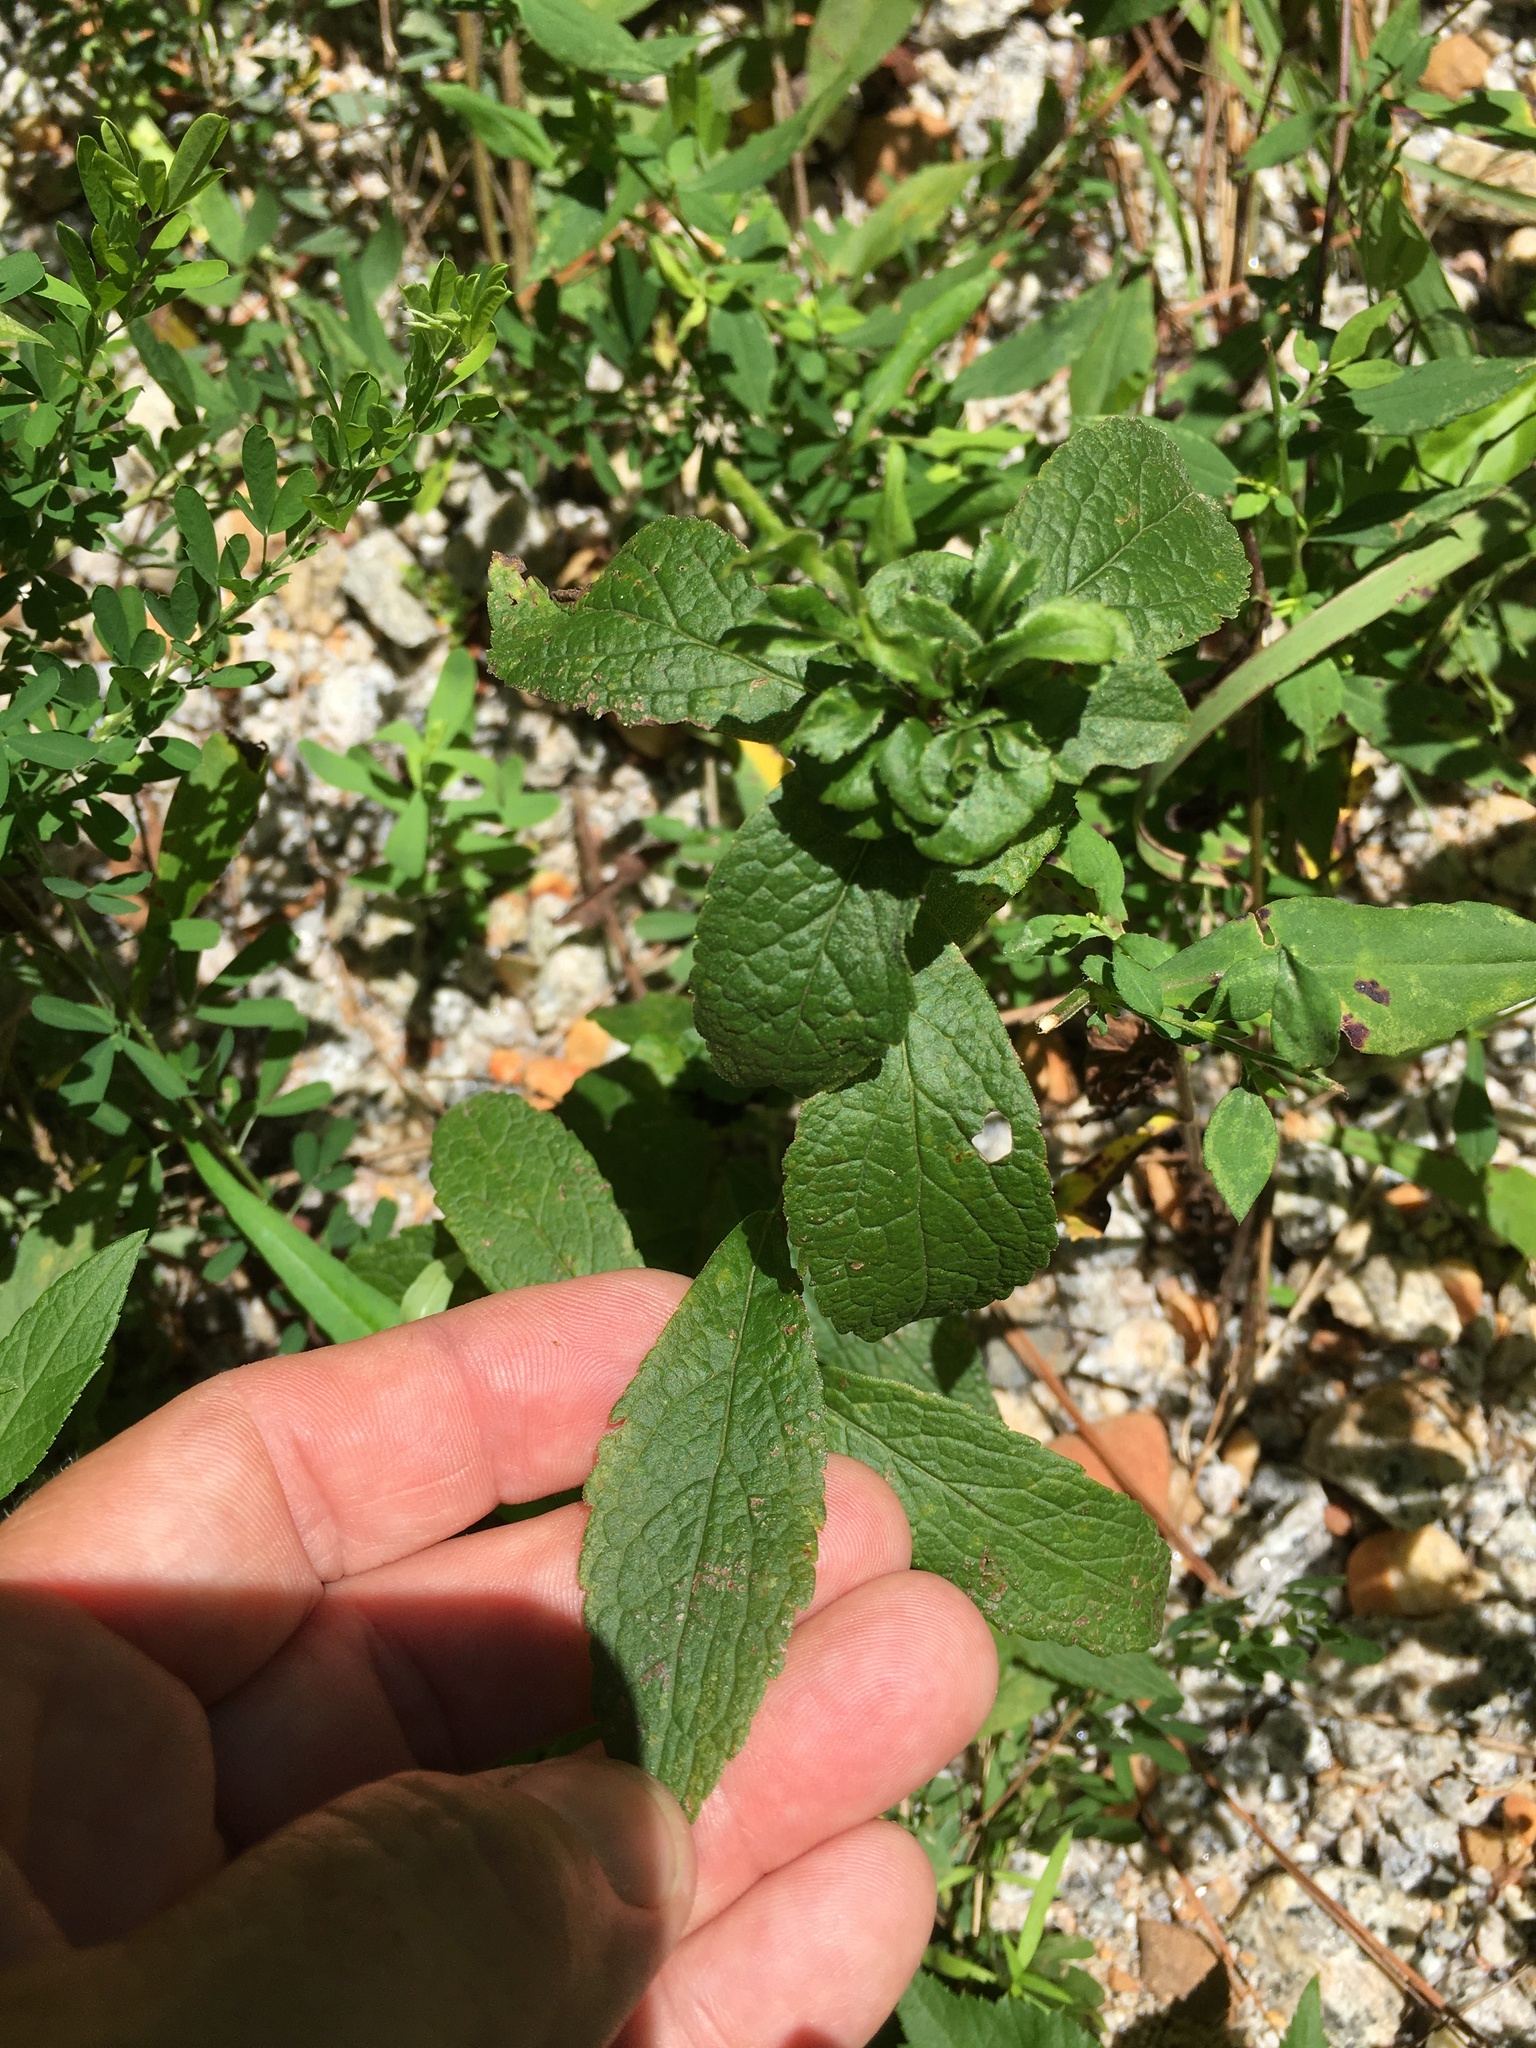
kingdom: Plantae
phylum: Tracheophyta
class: Magnoliopsida
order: Asterales
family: Asteraceae
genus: Solidago
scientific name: Solidago rugosa
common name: Rough-stemmed goldenrod
